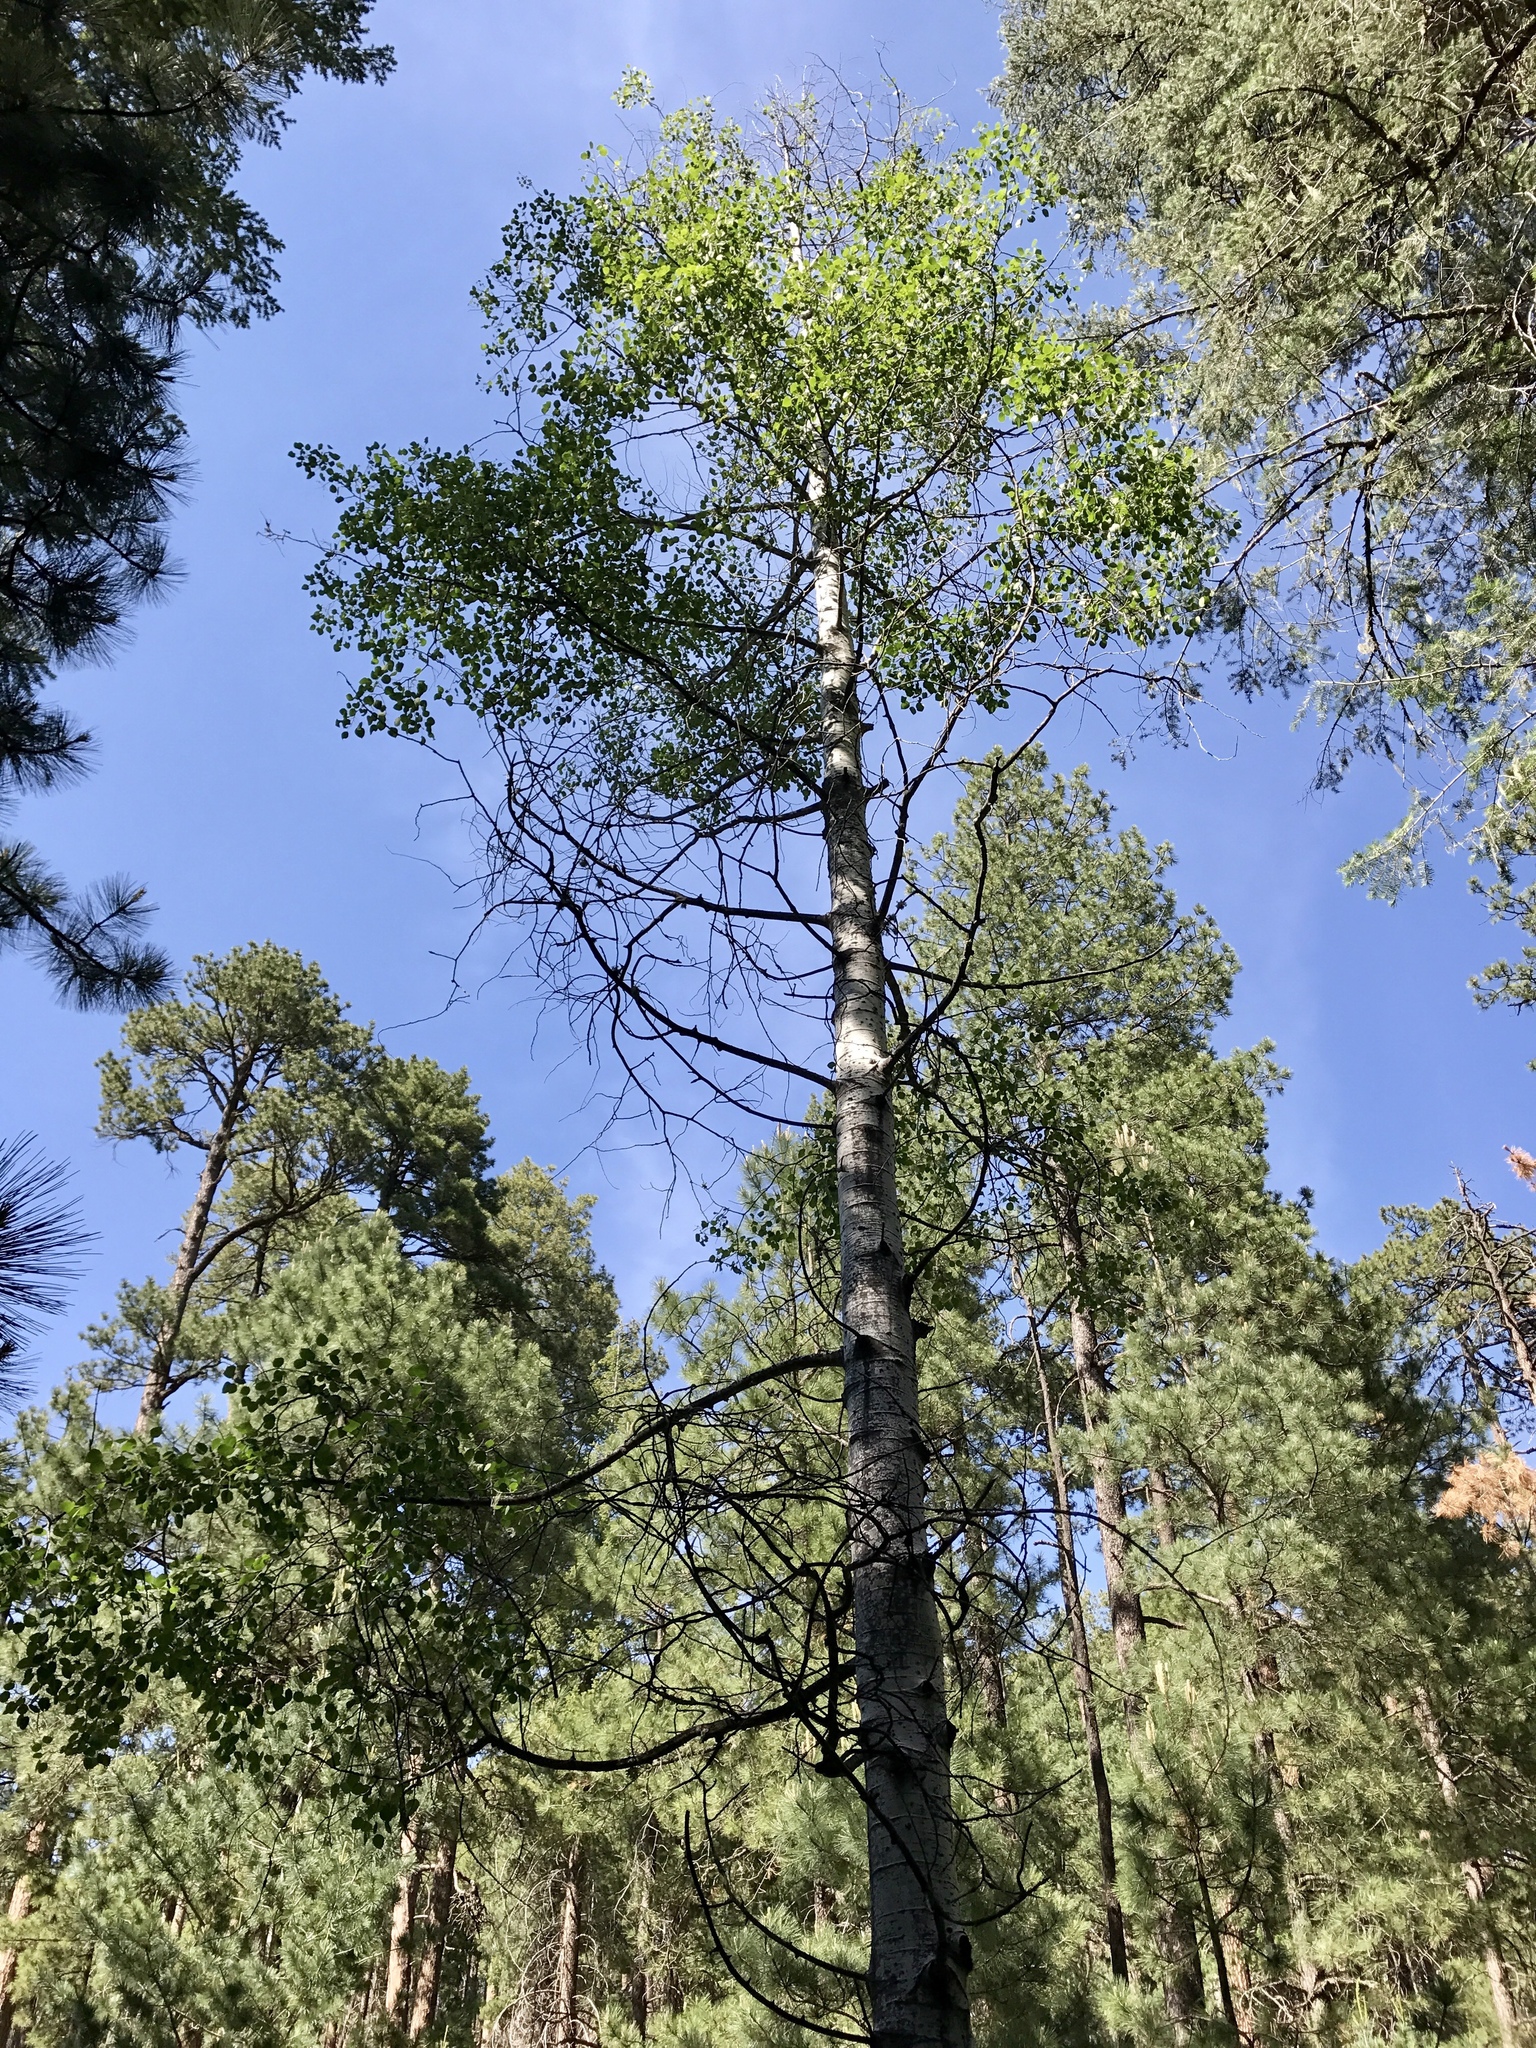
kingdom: Plantae
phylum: Tracheophyta
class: Magnoliopsida
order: Malpighiales
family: Salicaceae
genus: Populus
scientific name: Populus tremuloides
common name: Quaking aspen
